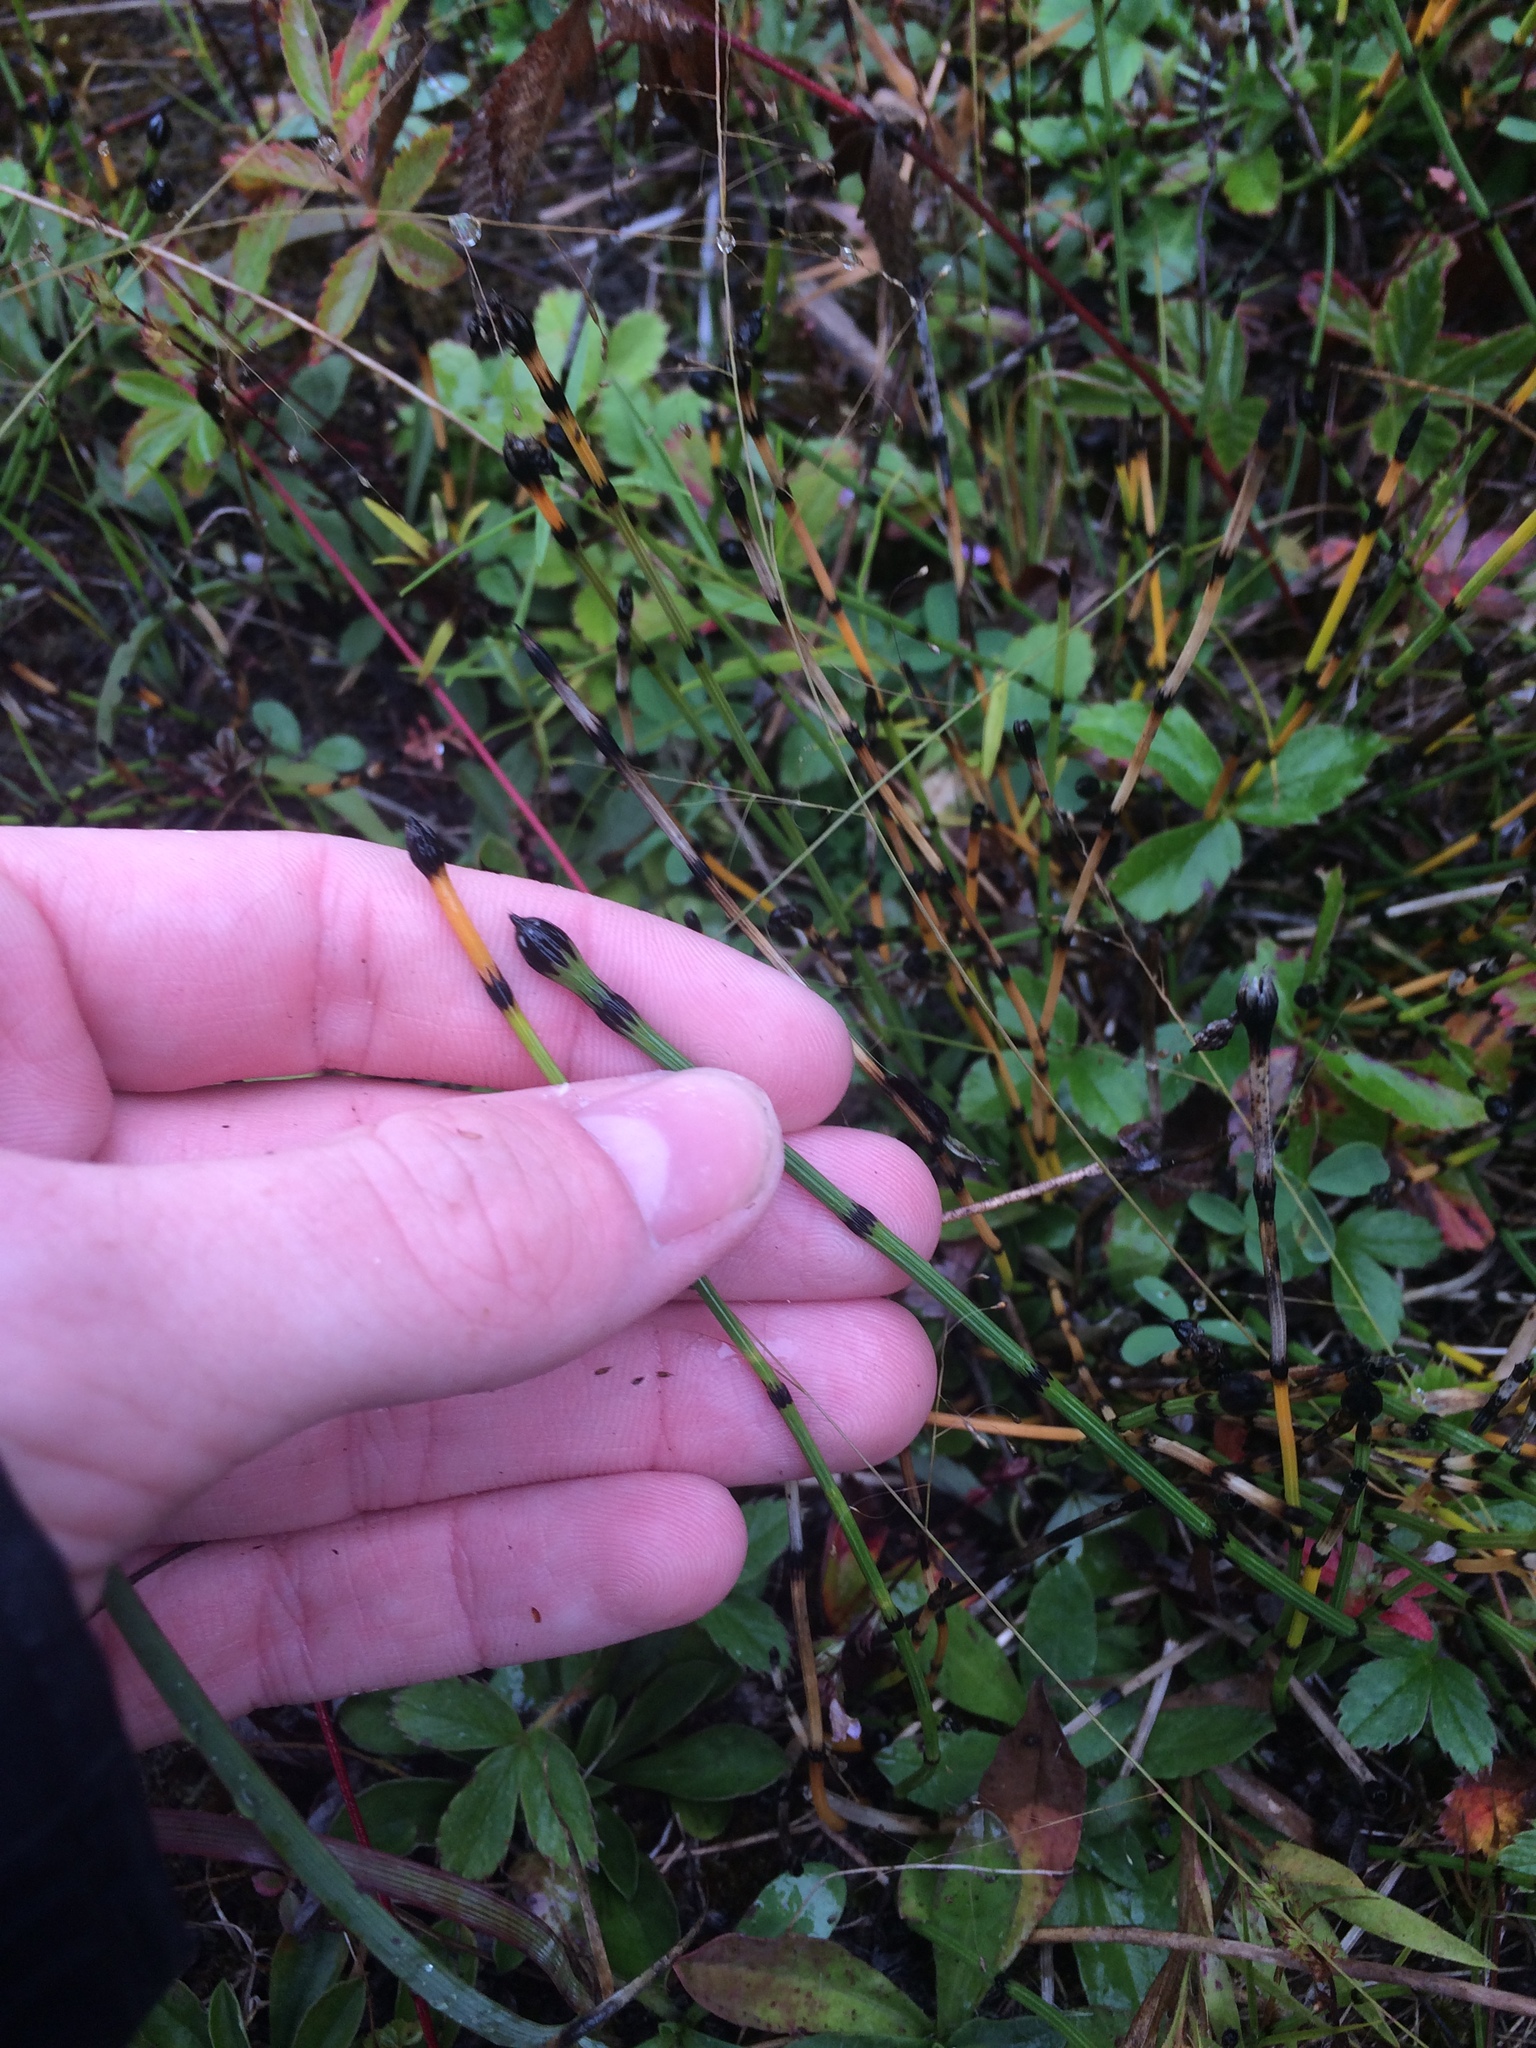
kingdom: Plantae
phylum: Tracheophyta
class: Polypodiopsida
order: Equisetales
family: Equisetaceae
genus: Equisetum
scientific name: Equisetum variegatum
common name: Variegated horsetail
